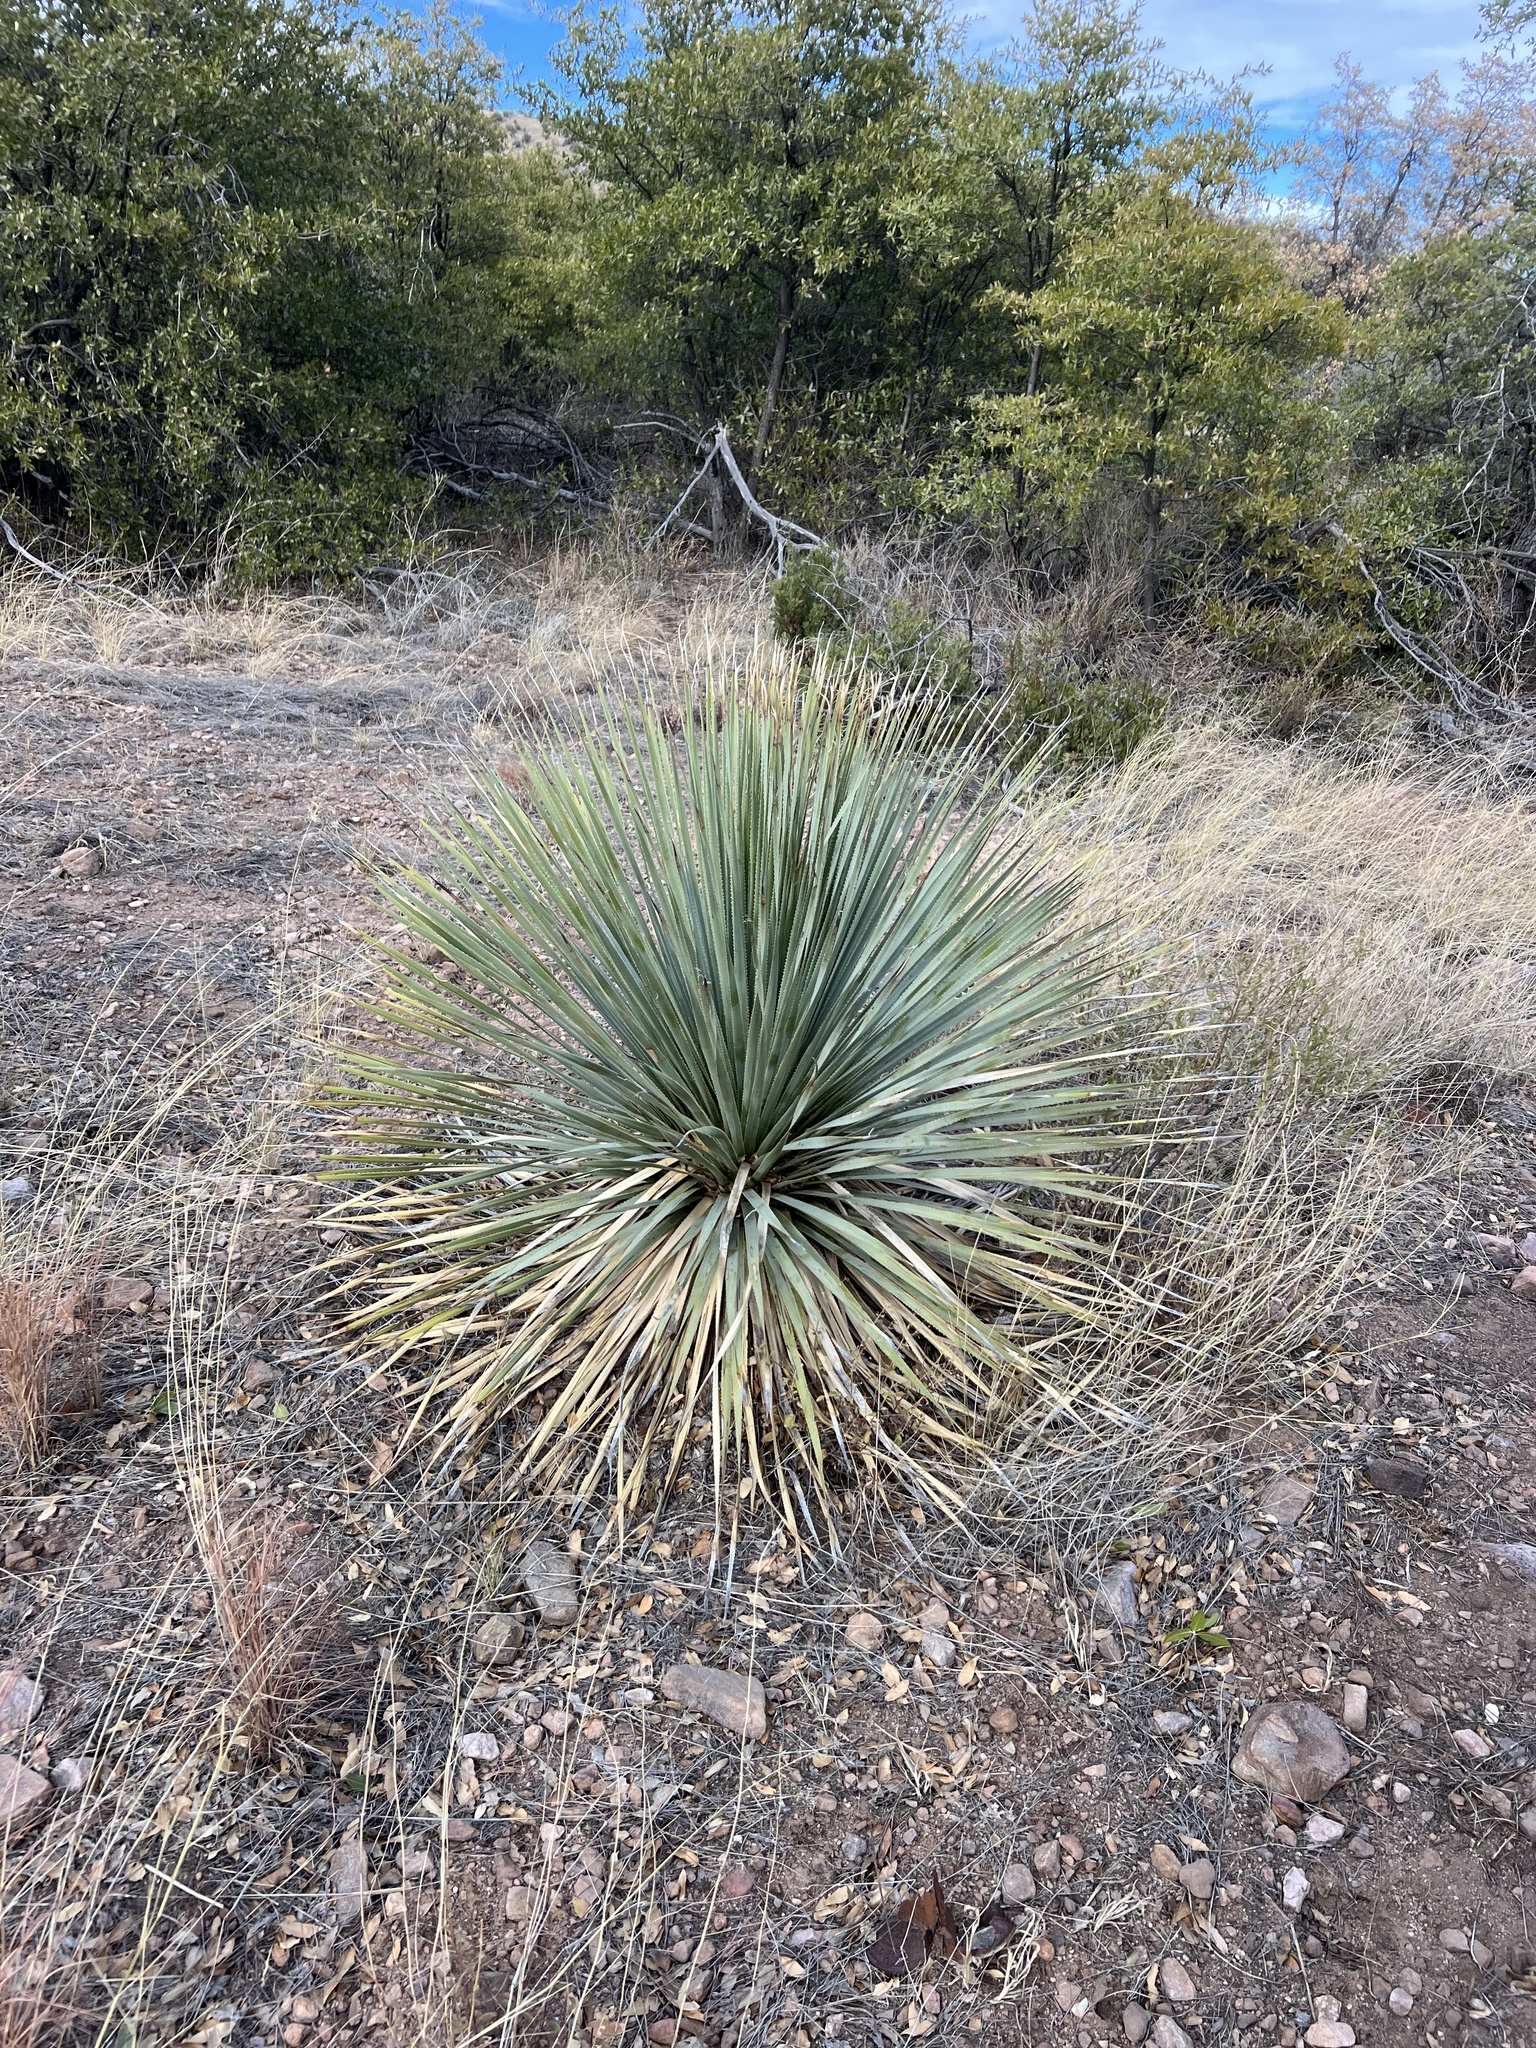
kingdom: Plantae
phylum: Tracheophyta
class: Liliopsida
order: Asparagales
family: Asparagaceae
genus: Dasylirion
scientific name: Dasylirion wheeleri
